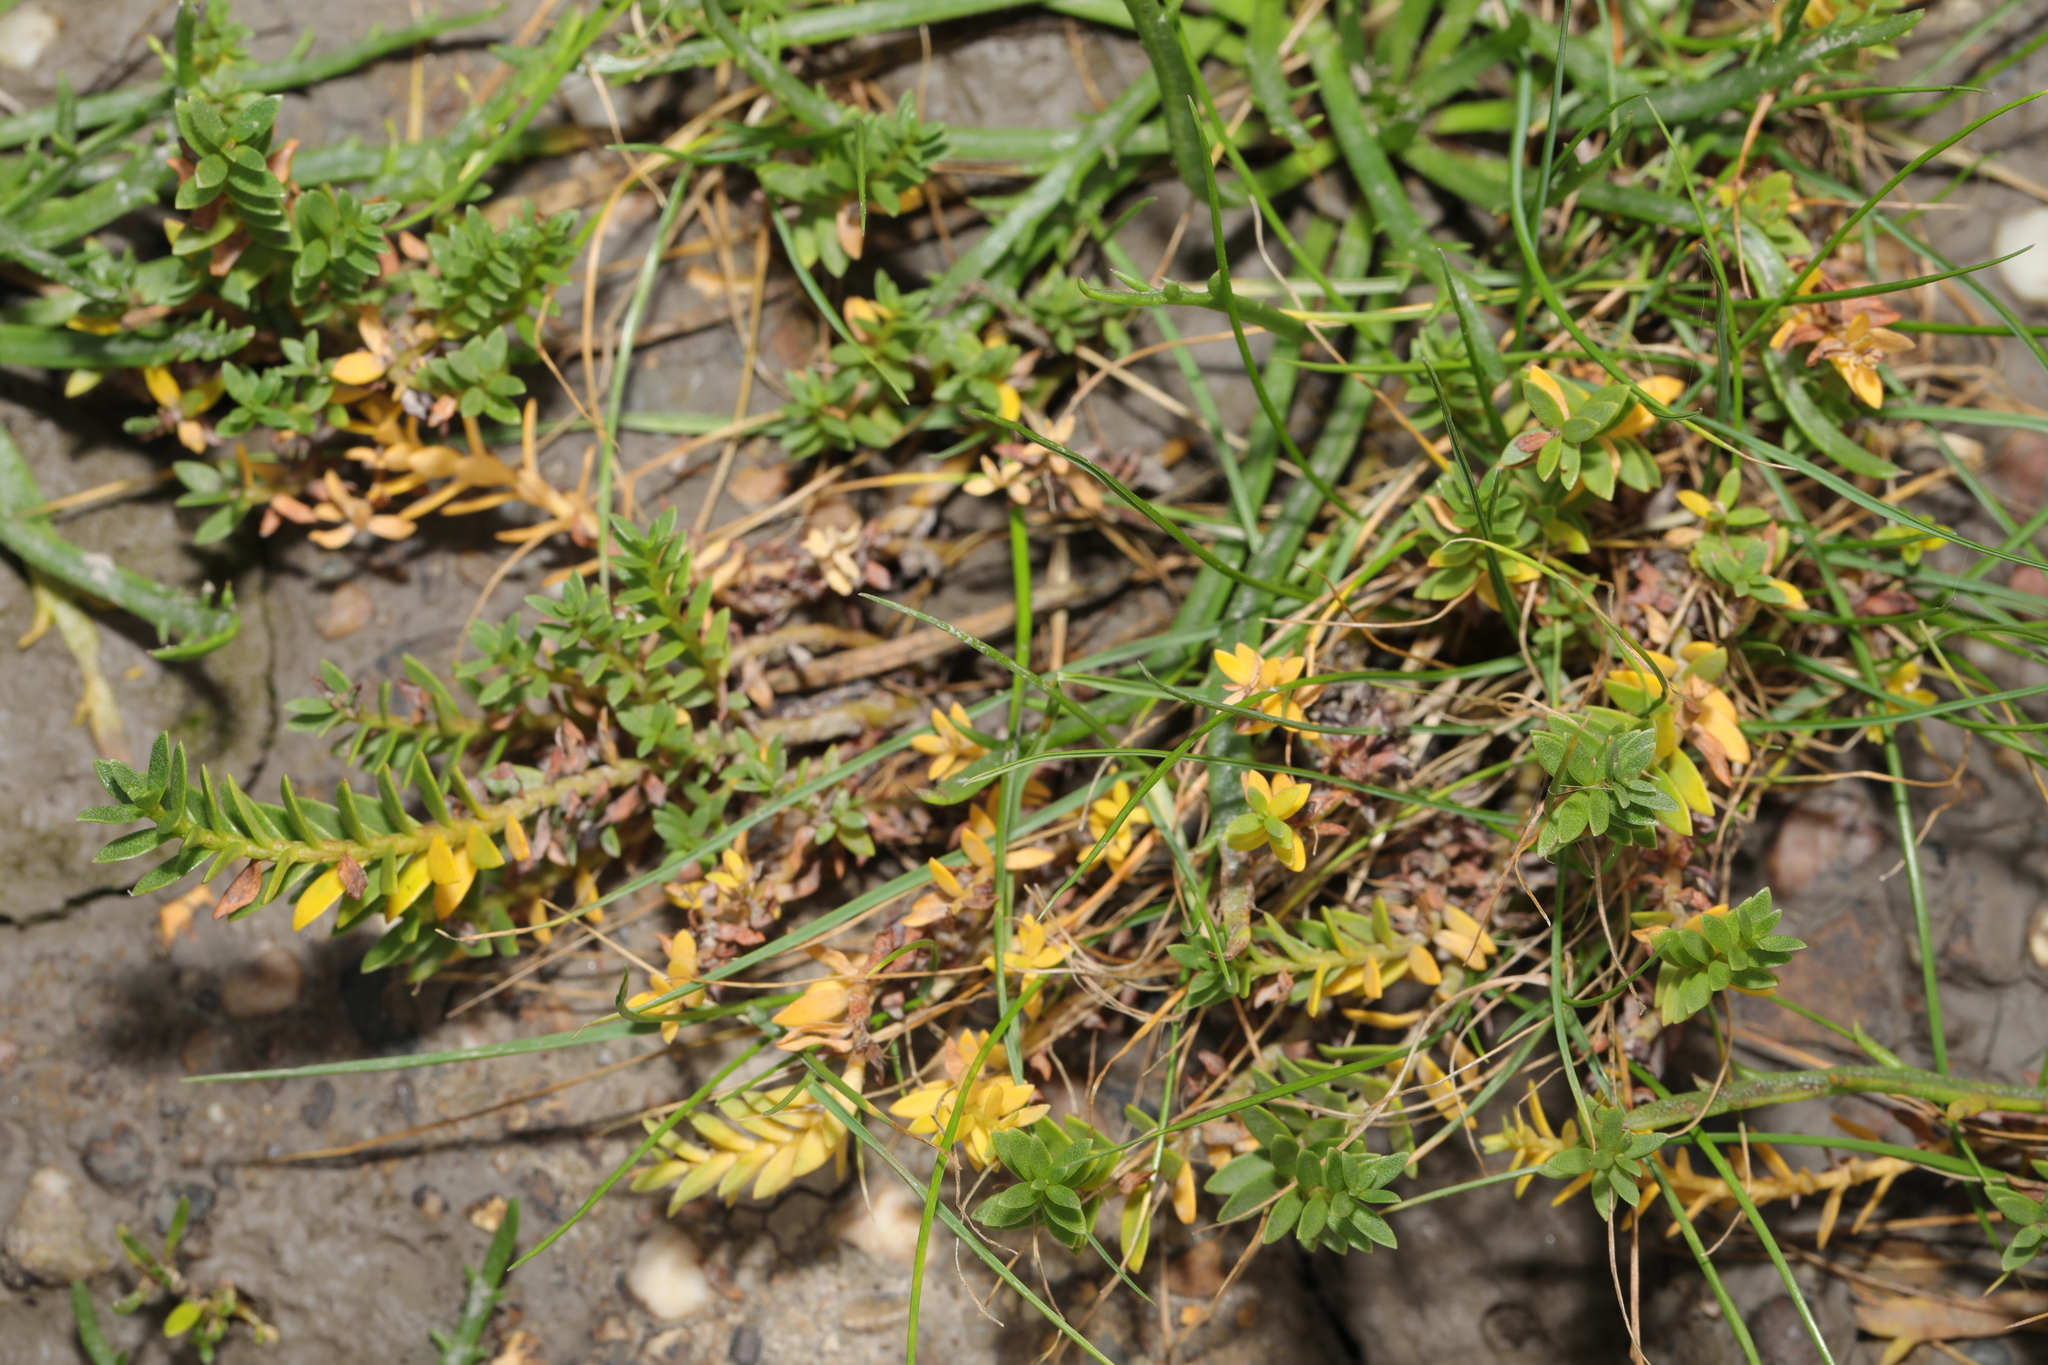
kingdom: Plantae
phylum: Tracheophyta
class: Magnoliopsida
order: Ericales
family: Primulaceae
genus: Lysimachia
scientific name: Lysimachia maritima
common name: Sea milkwort
